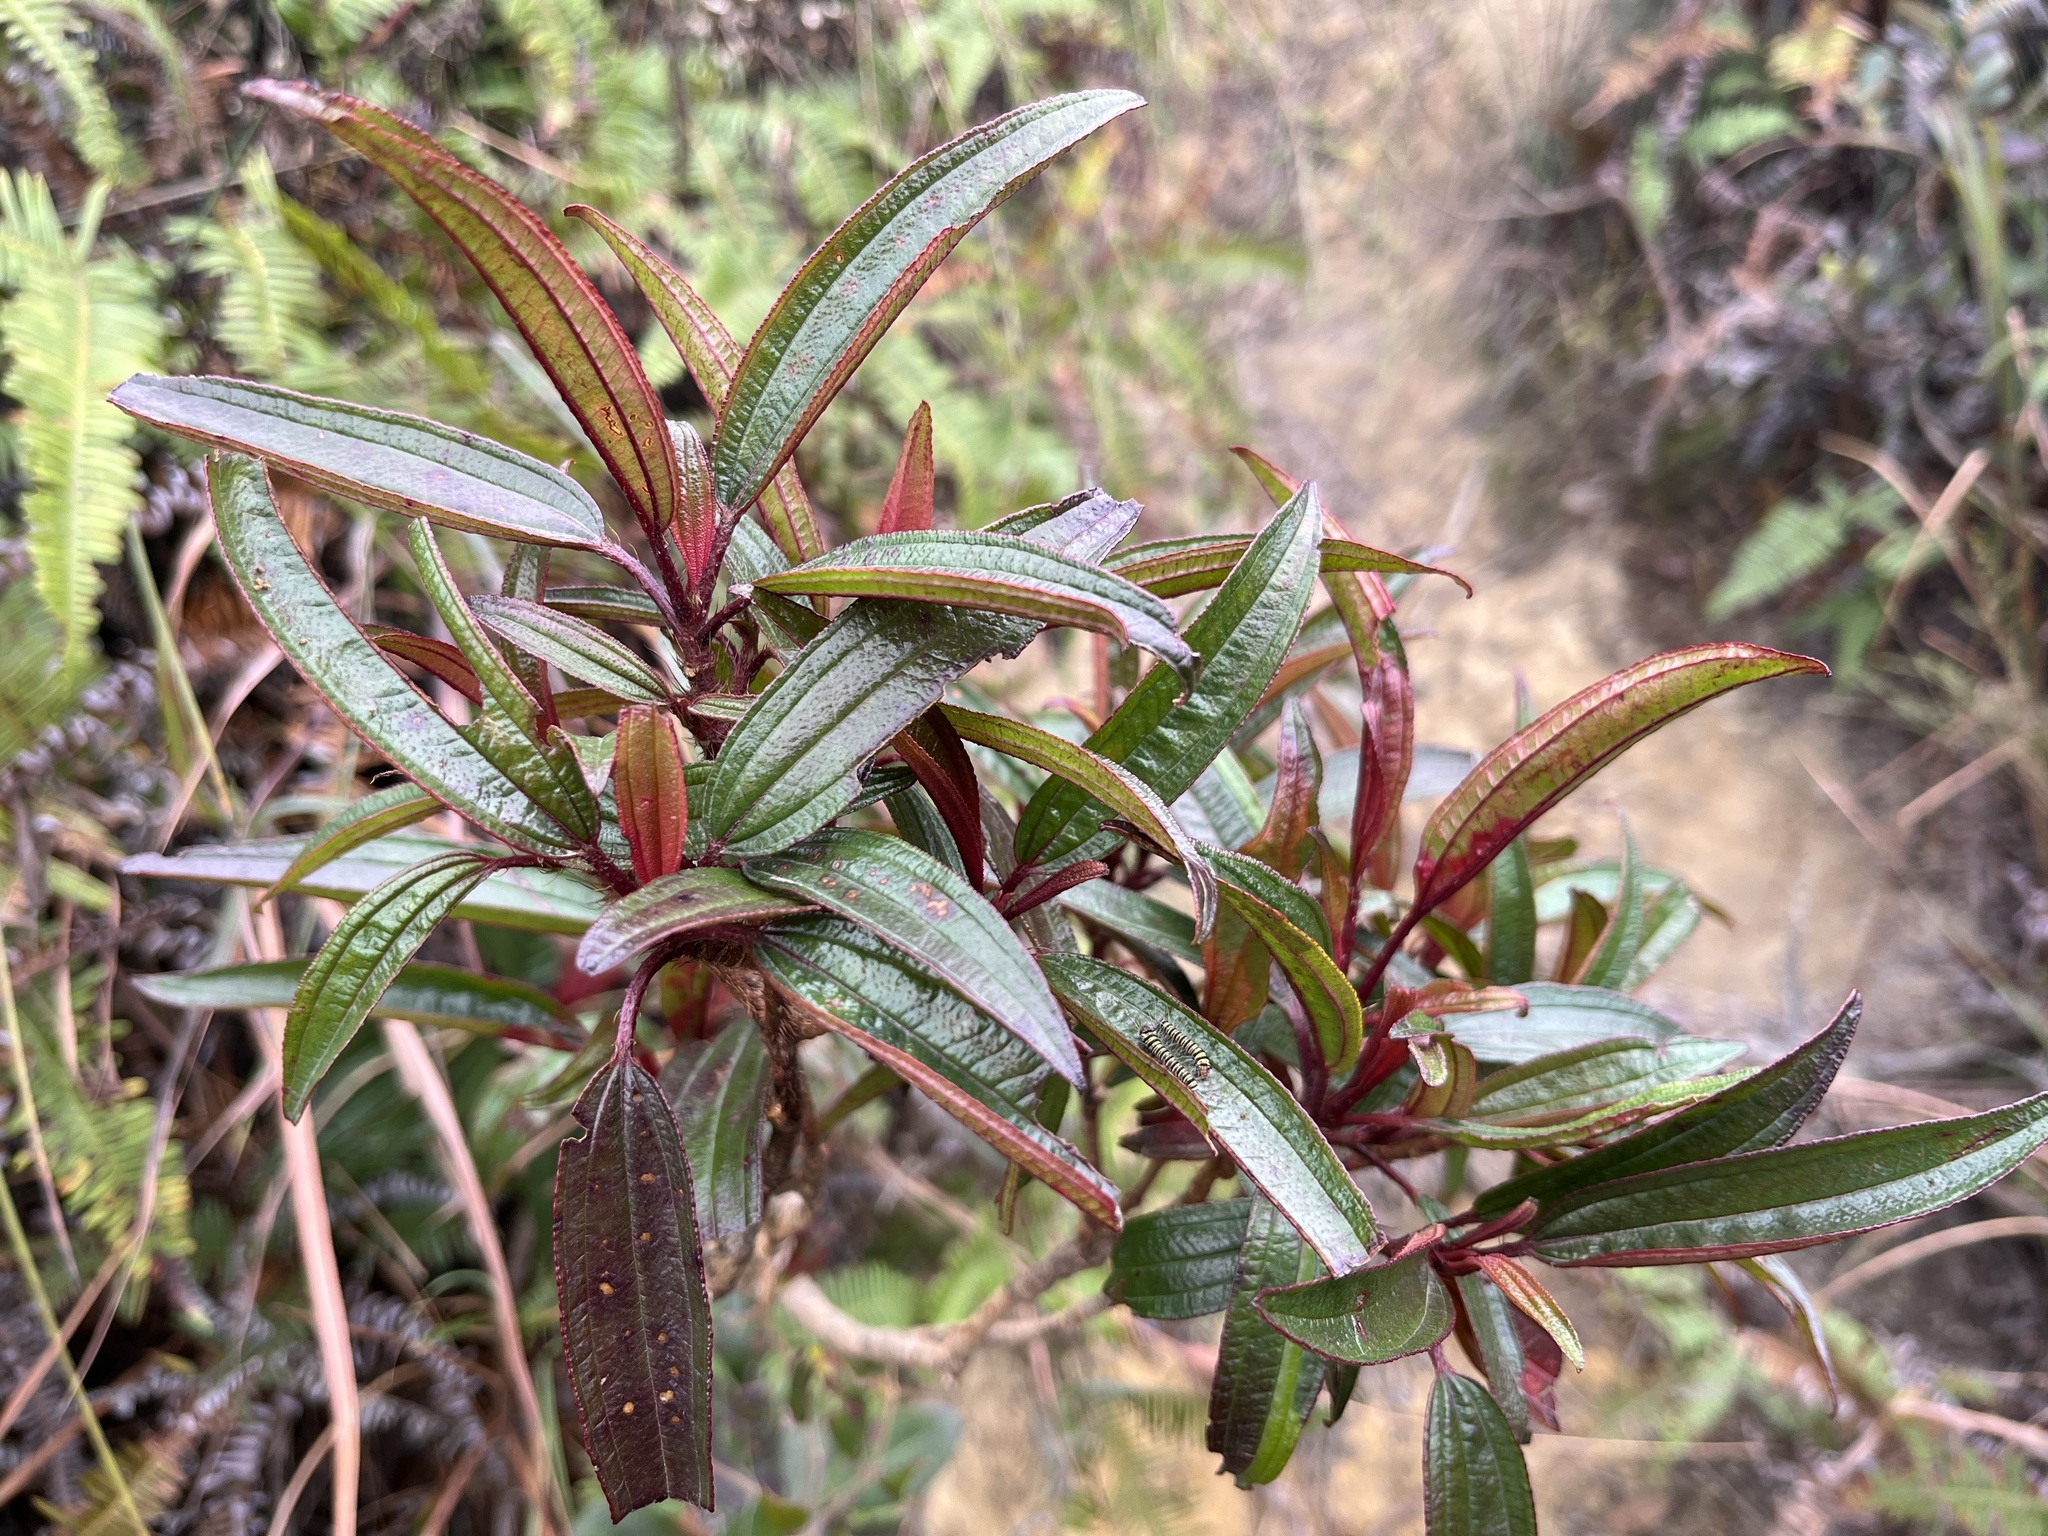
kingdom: Plantae
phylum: Tracheophyta
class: Magnoliopsida
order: Myrtales
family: Melastomataceae
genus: Melastoma
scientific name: Melastoma sanguineum
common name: Red melastome
